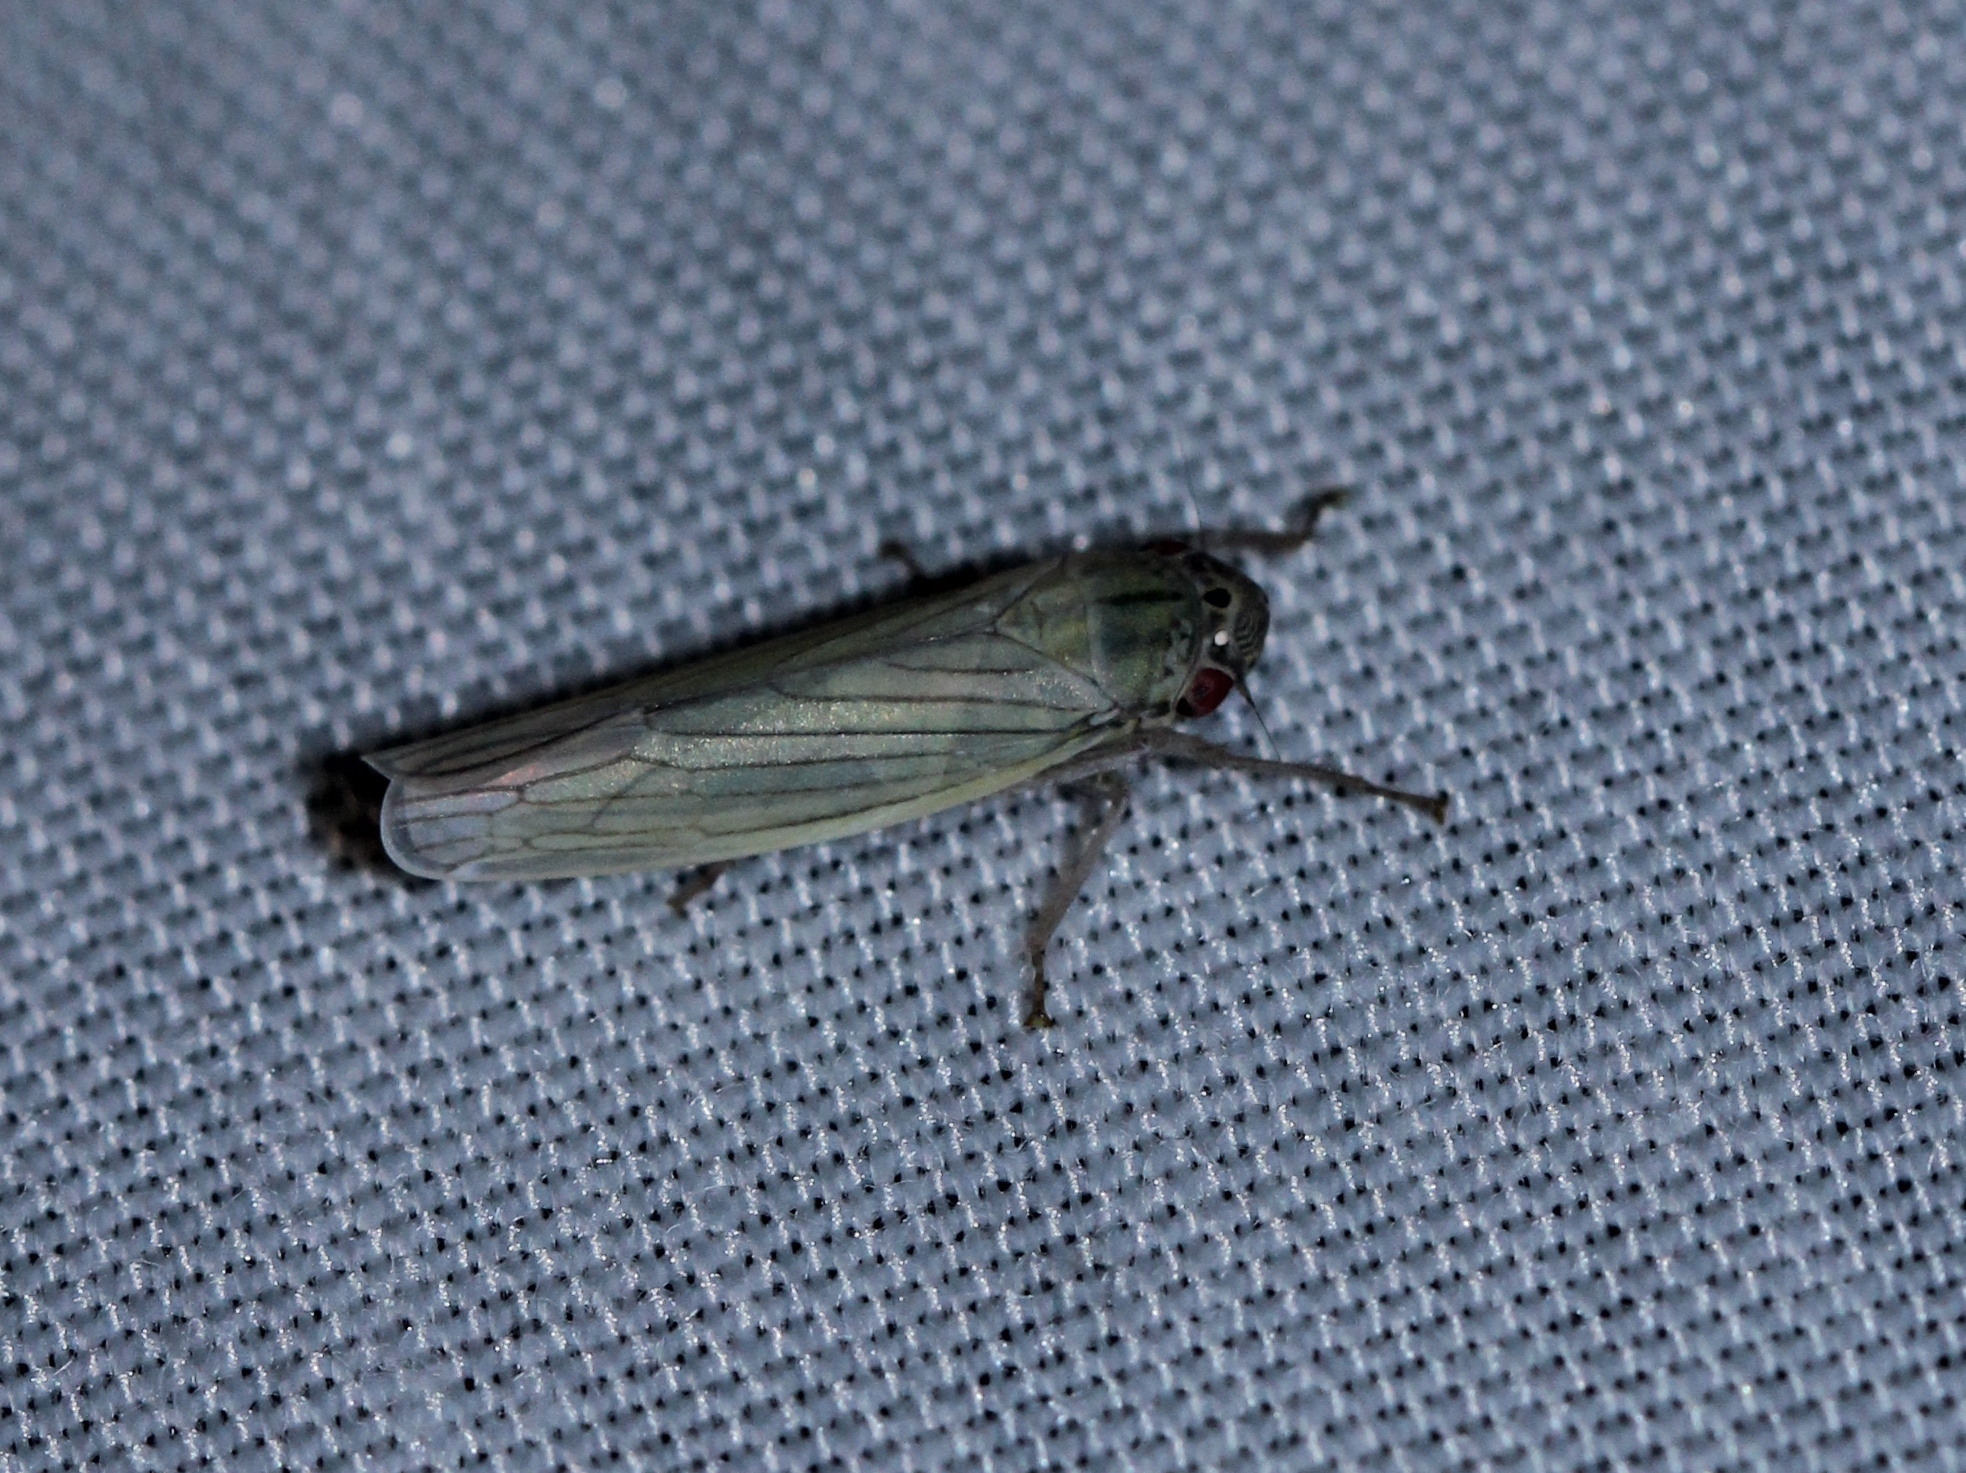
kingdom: Animalia
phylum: Arthropoda
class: Insecta
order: Hemiptera
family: Cicadellidae
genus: Cofana
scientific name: Cofana spectra
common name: White leafhopper
